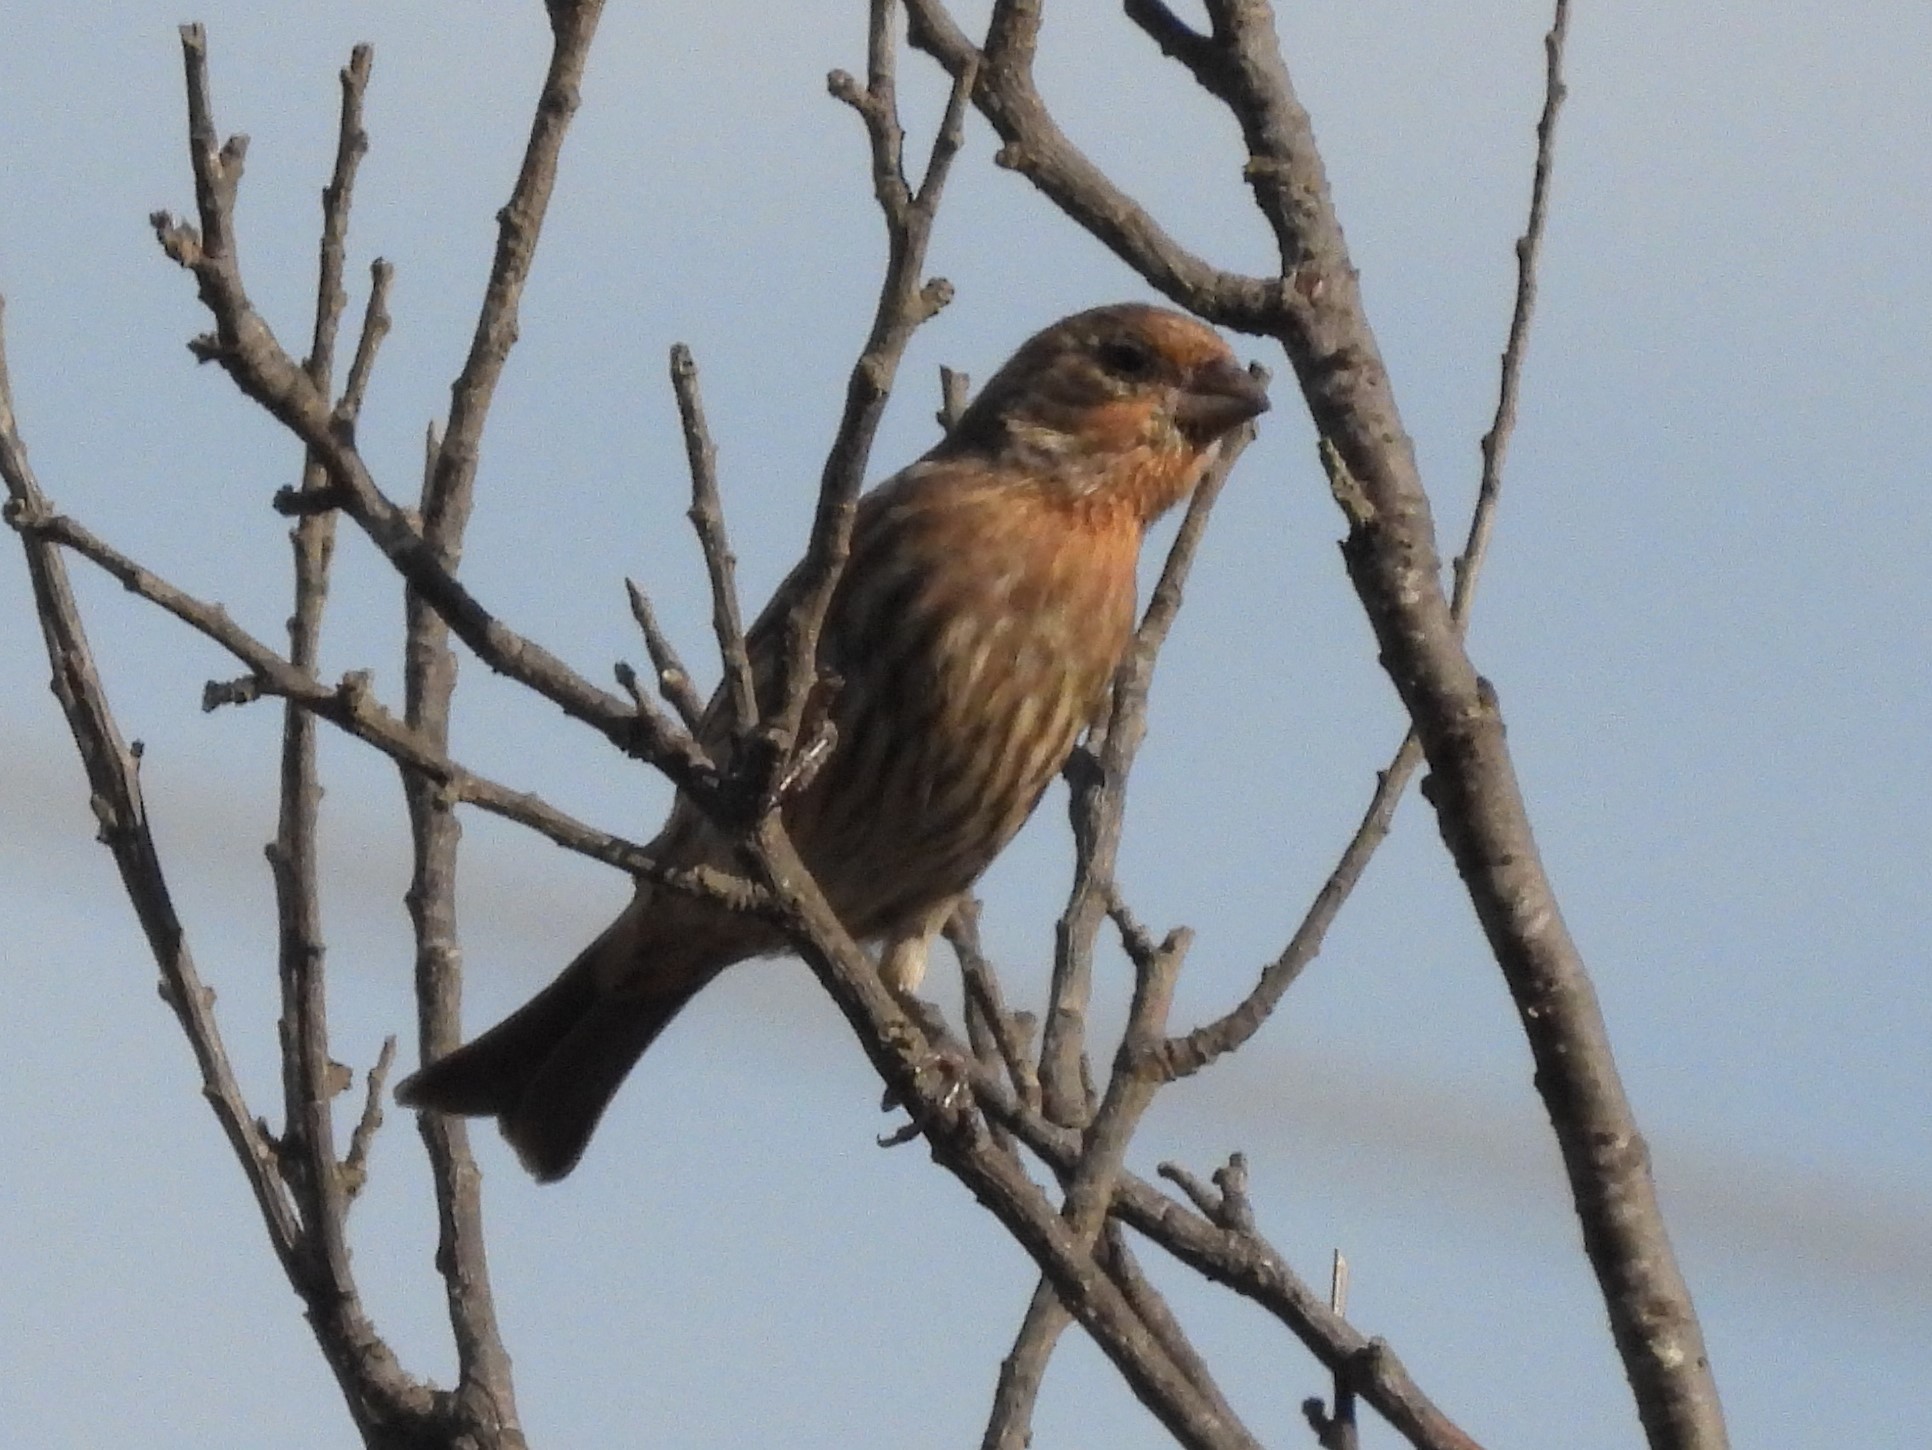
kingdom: Animalia
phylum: Chordata
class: Aves
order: Passeriformes
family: Fringillidae
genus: Haemorhous
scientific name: Haemorhous mexicanus
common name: House finch
